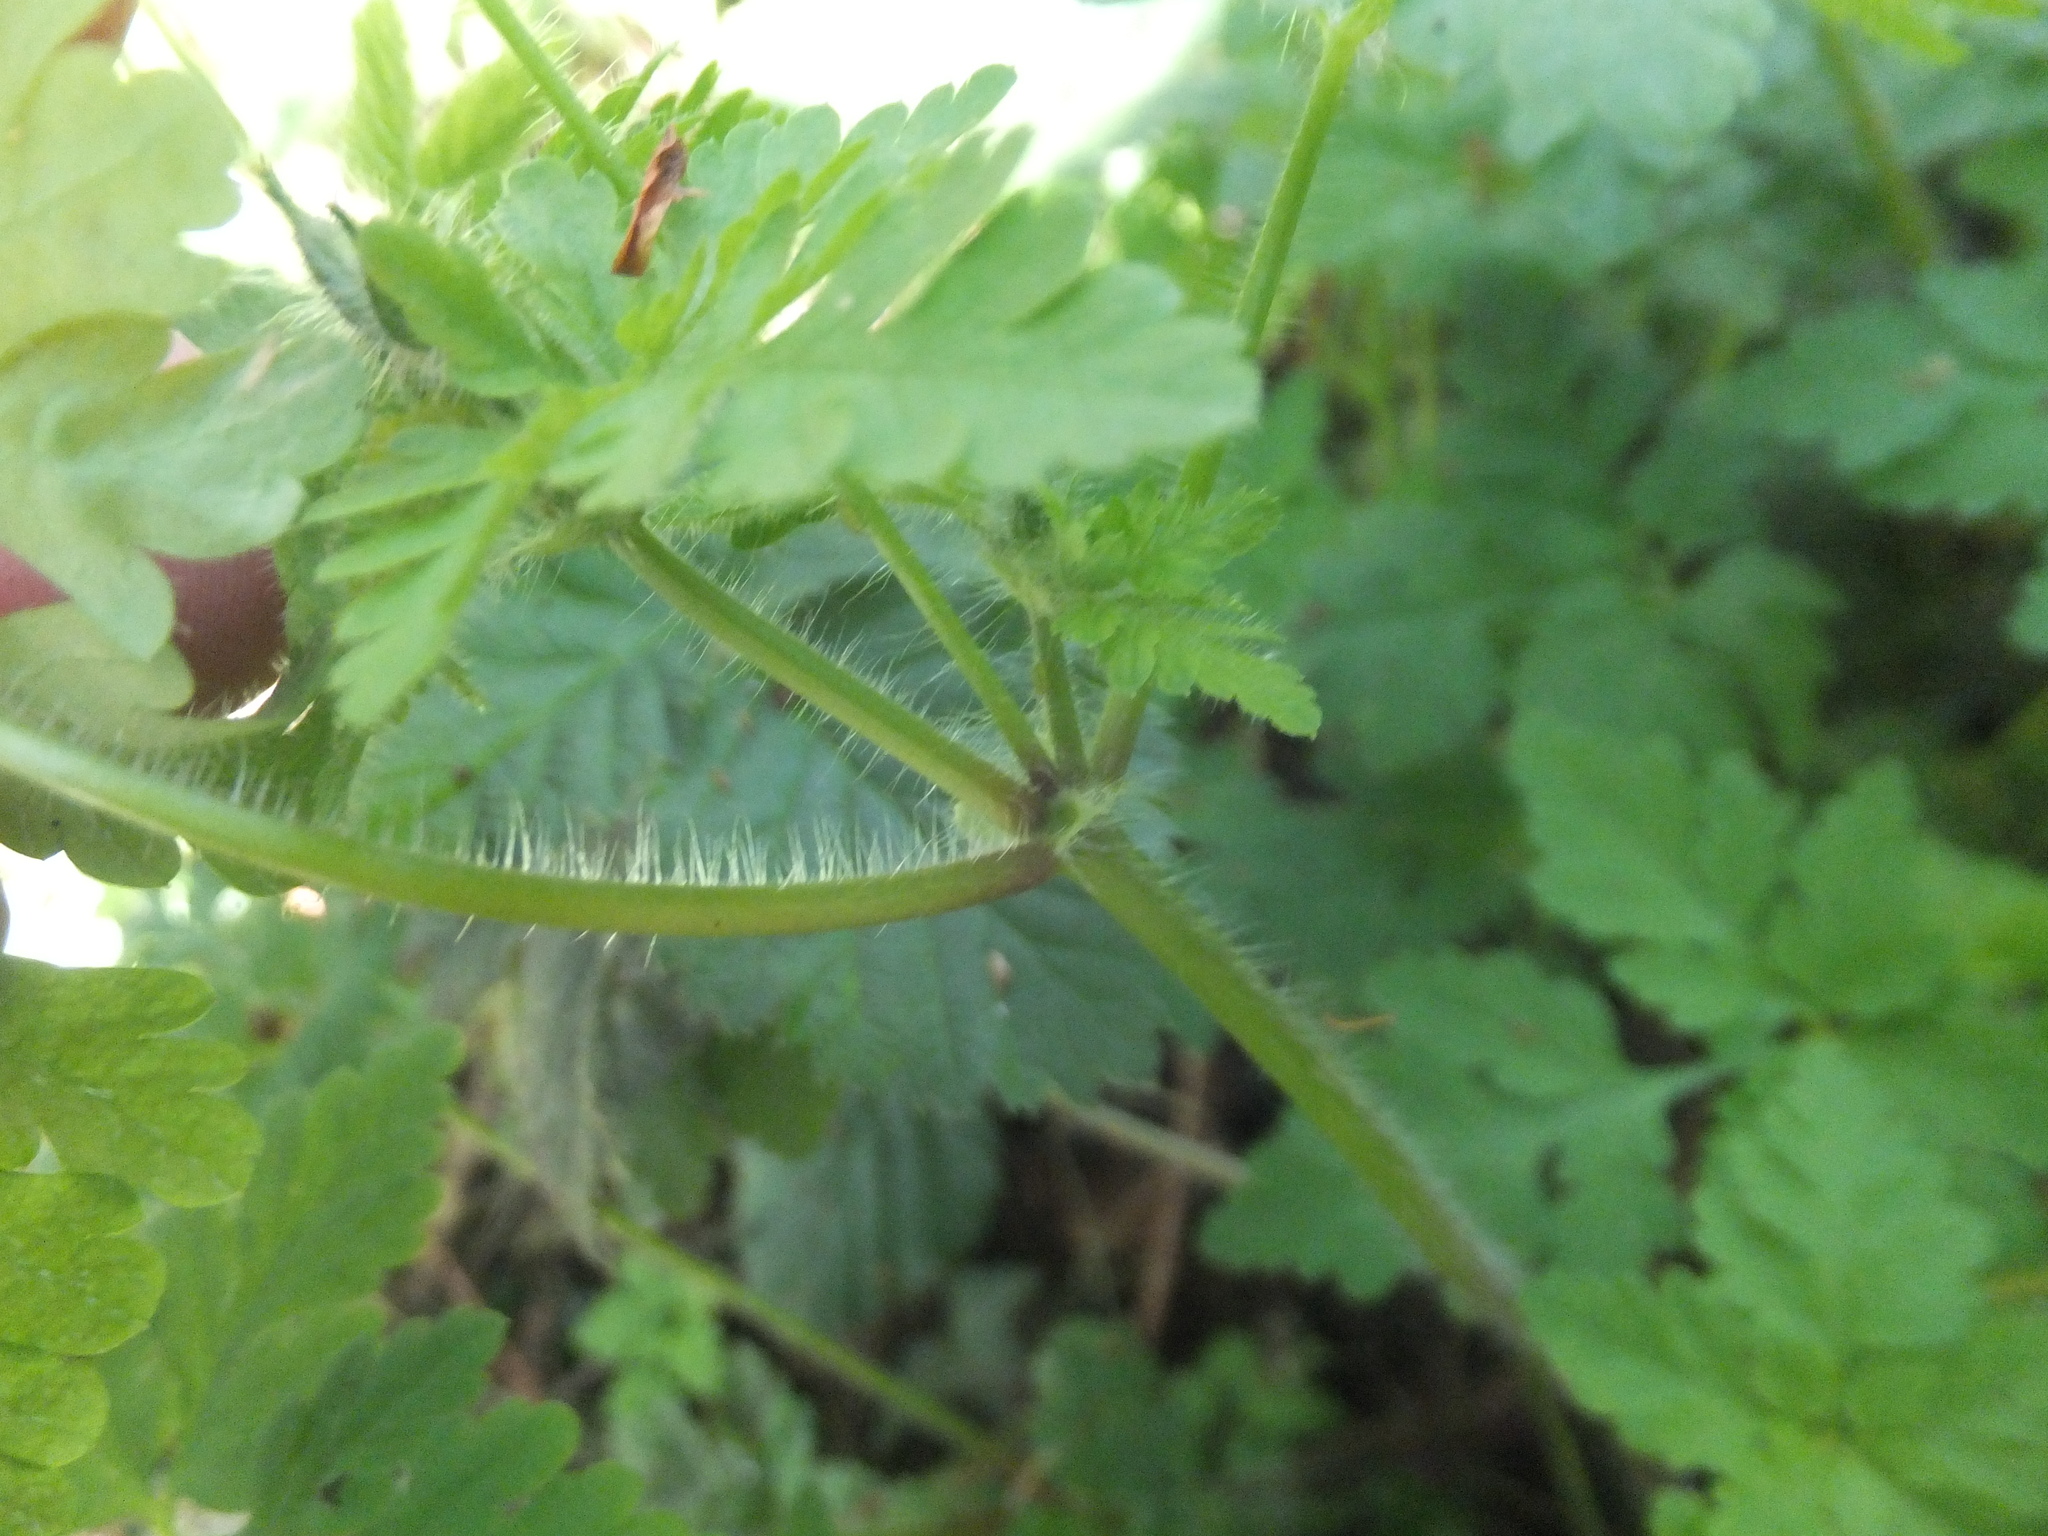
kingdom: Plantae
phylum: Tracheophyta
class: Magnoliopsida
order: Geraniales
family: Geraniaceae
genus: Geranium
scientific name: Geranium robertianum
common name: Herb-robert
